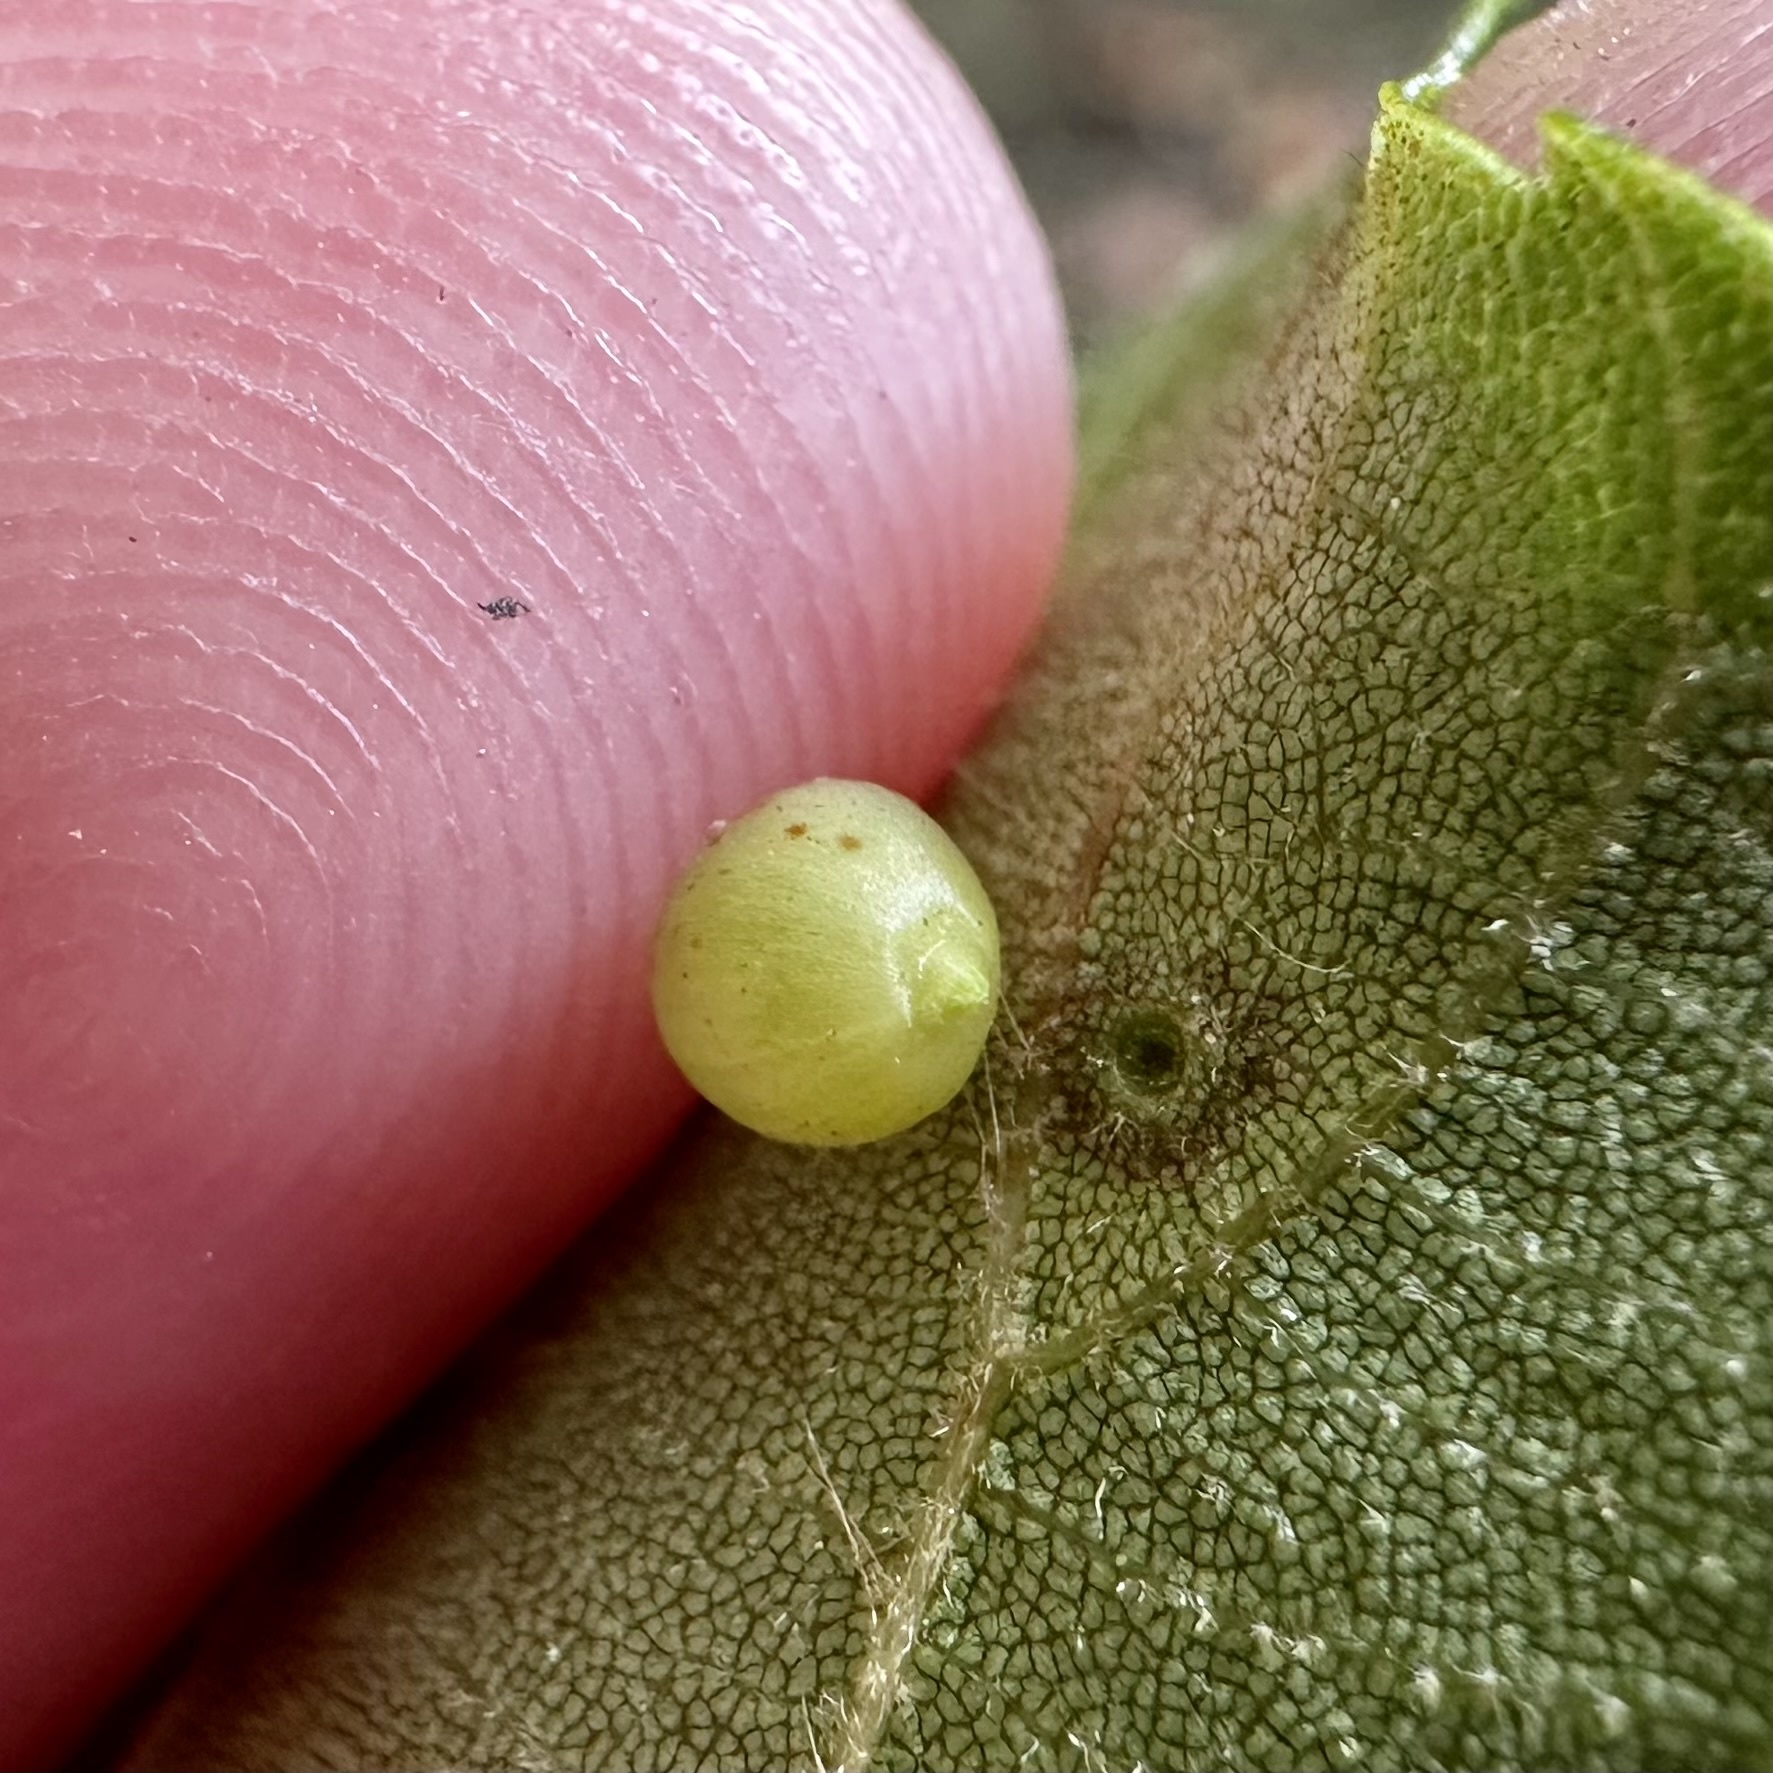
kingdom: Animalia
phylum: Arthropoda
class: Insecta
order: Diptera
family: Cecidomyiidae
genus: Caryomyia
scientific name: Caryomyia leviglobus
